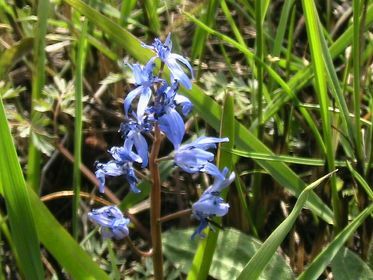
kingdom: Plantae
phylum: Tracheophyta
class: Liliopsida
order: Asparagales
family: Asparagaceae
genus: Scilla
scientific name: Scilla bifolia
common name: Alpine squill
